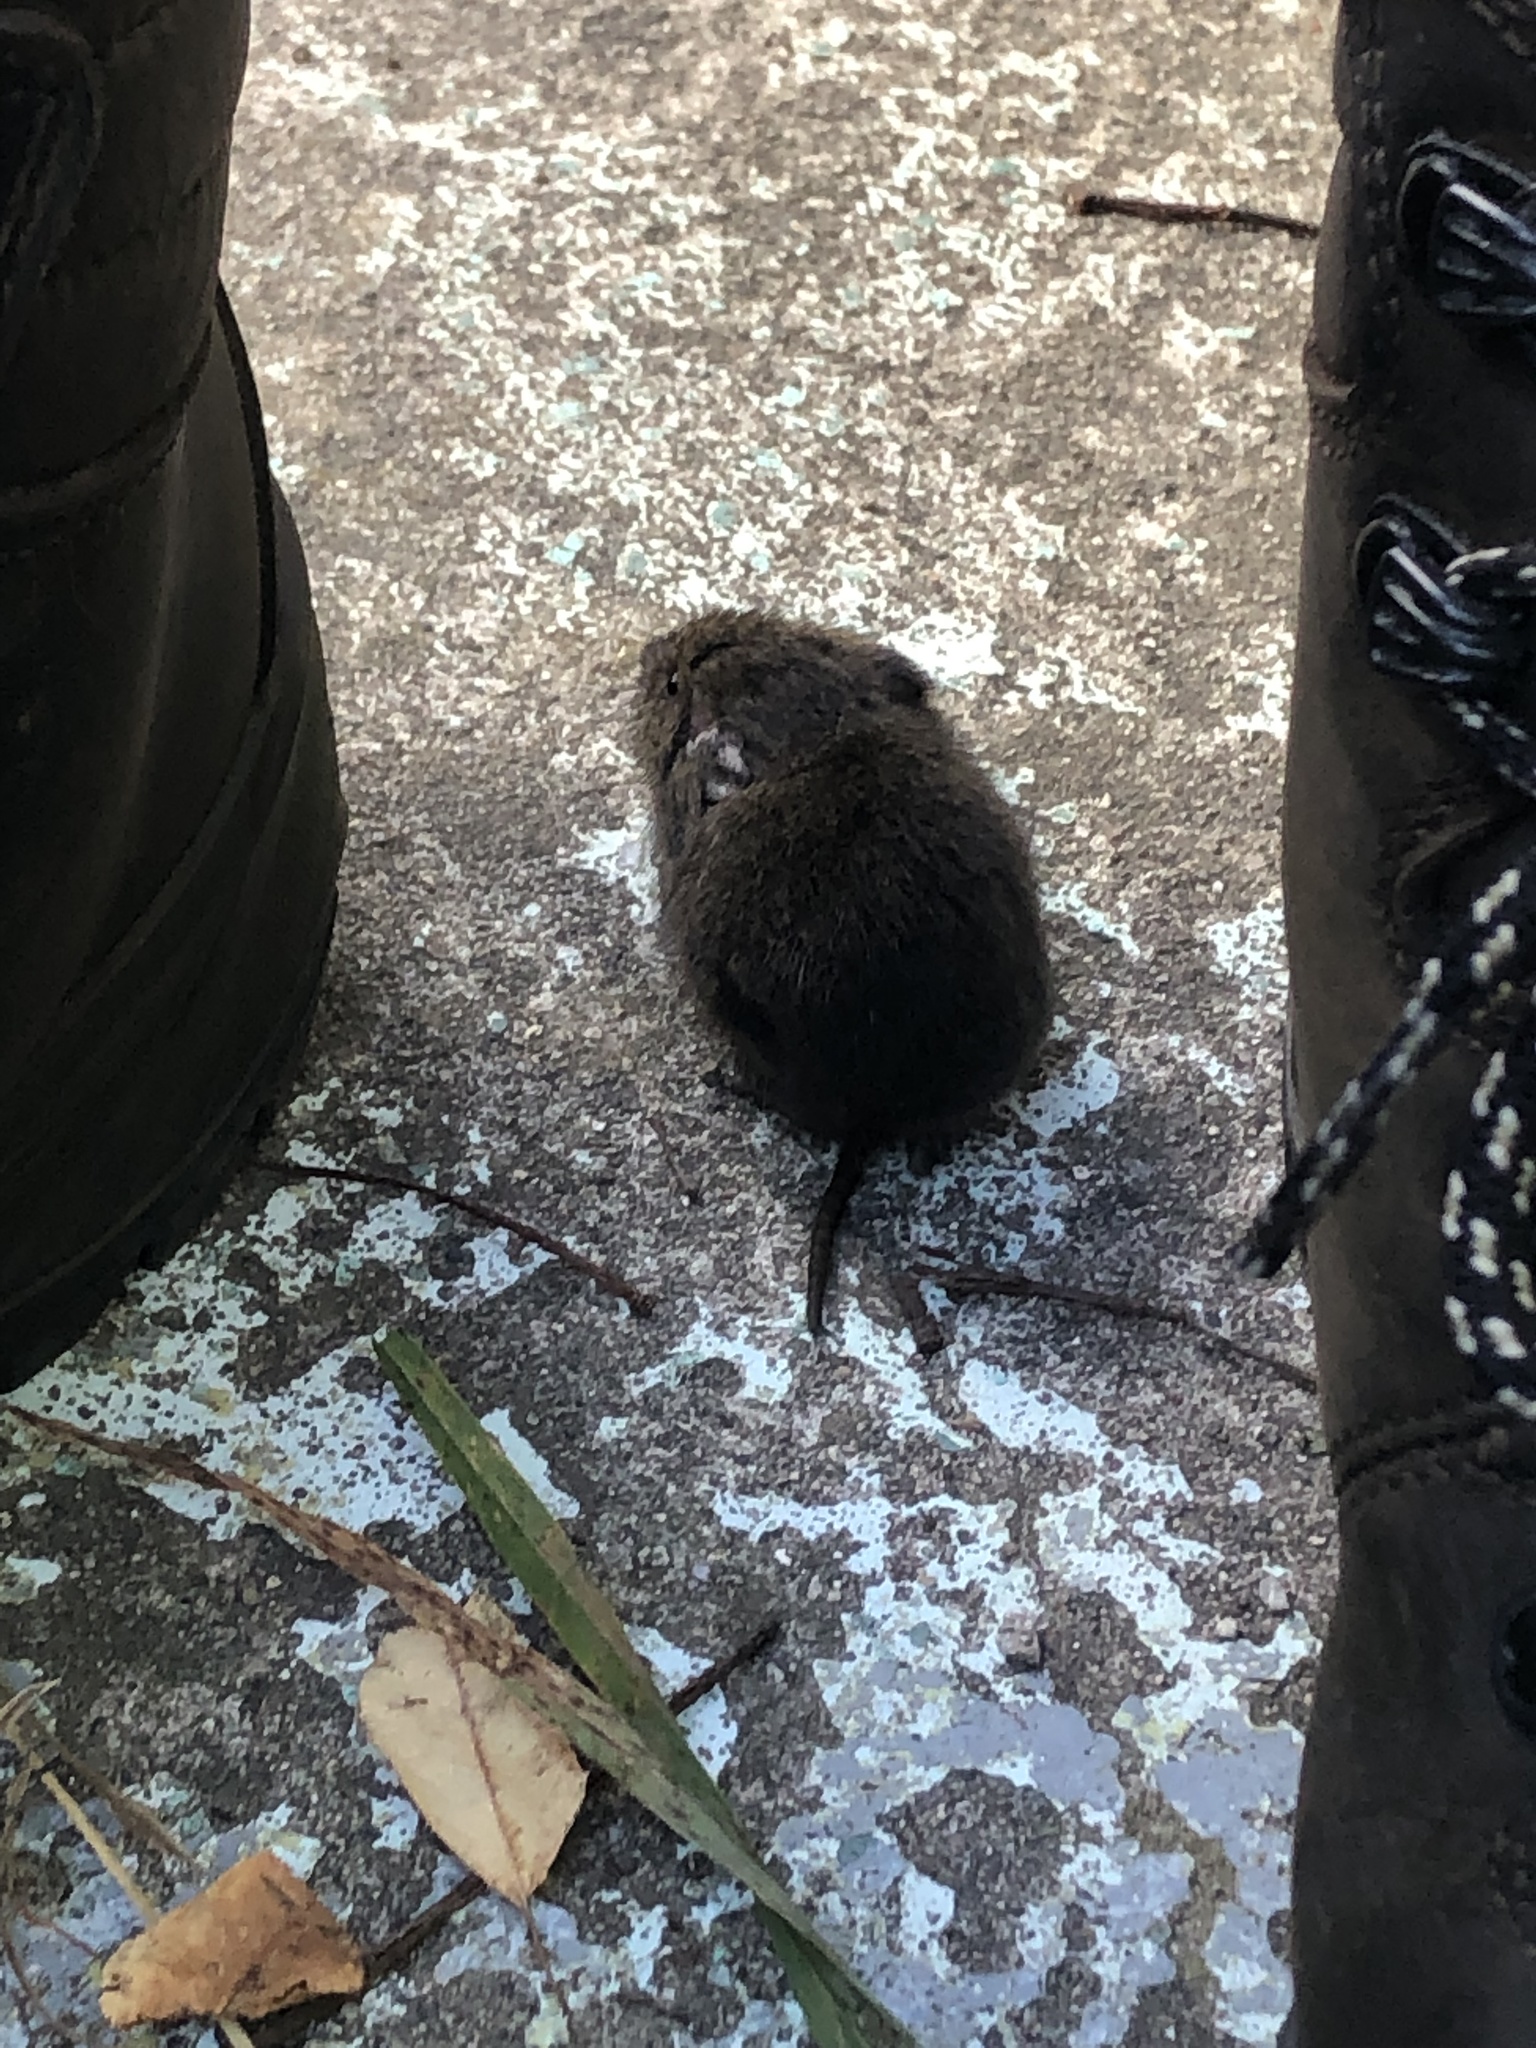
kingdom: Animalia
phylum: Chordata
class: Mammalia
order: Rodentia
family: Cricetidae
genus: Microtus
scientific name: Microtus pennsylvanicus
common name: Meadow vole
